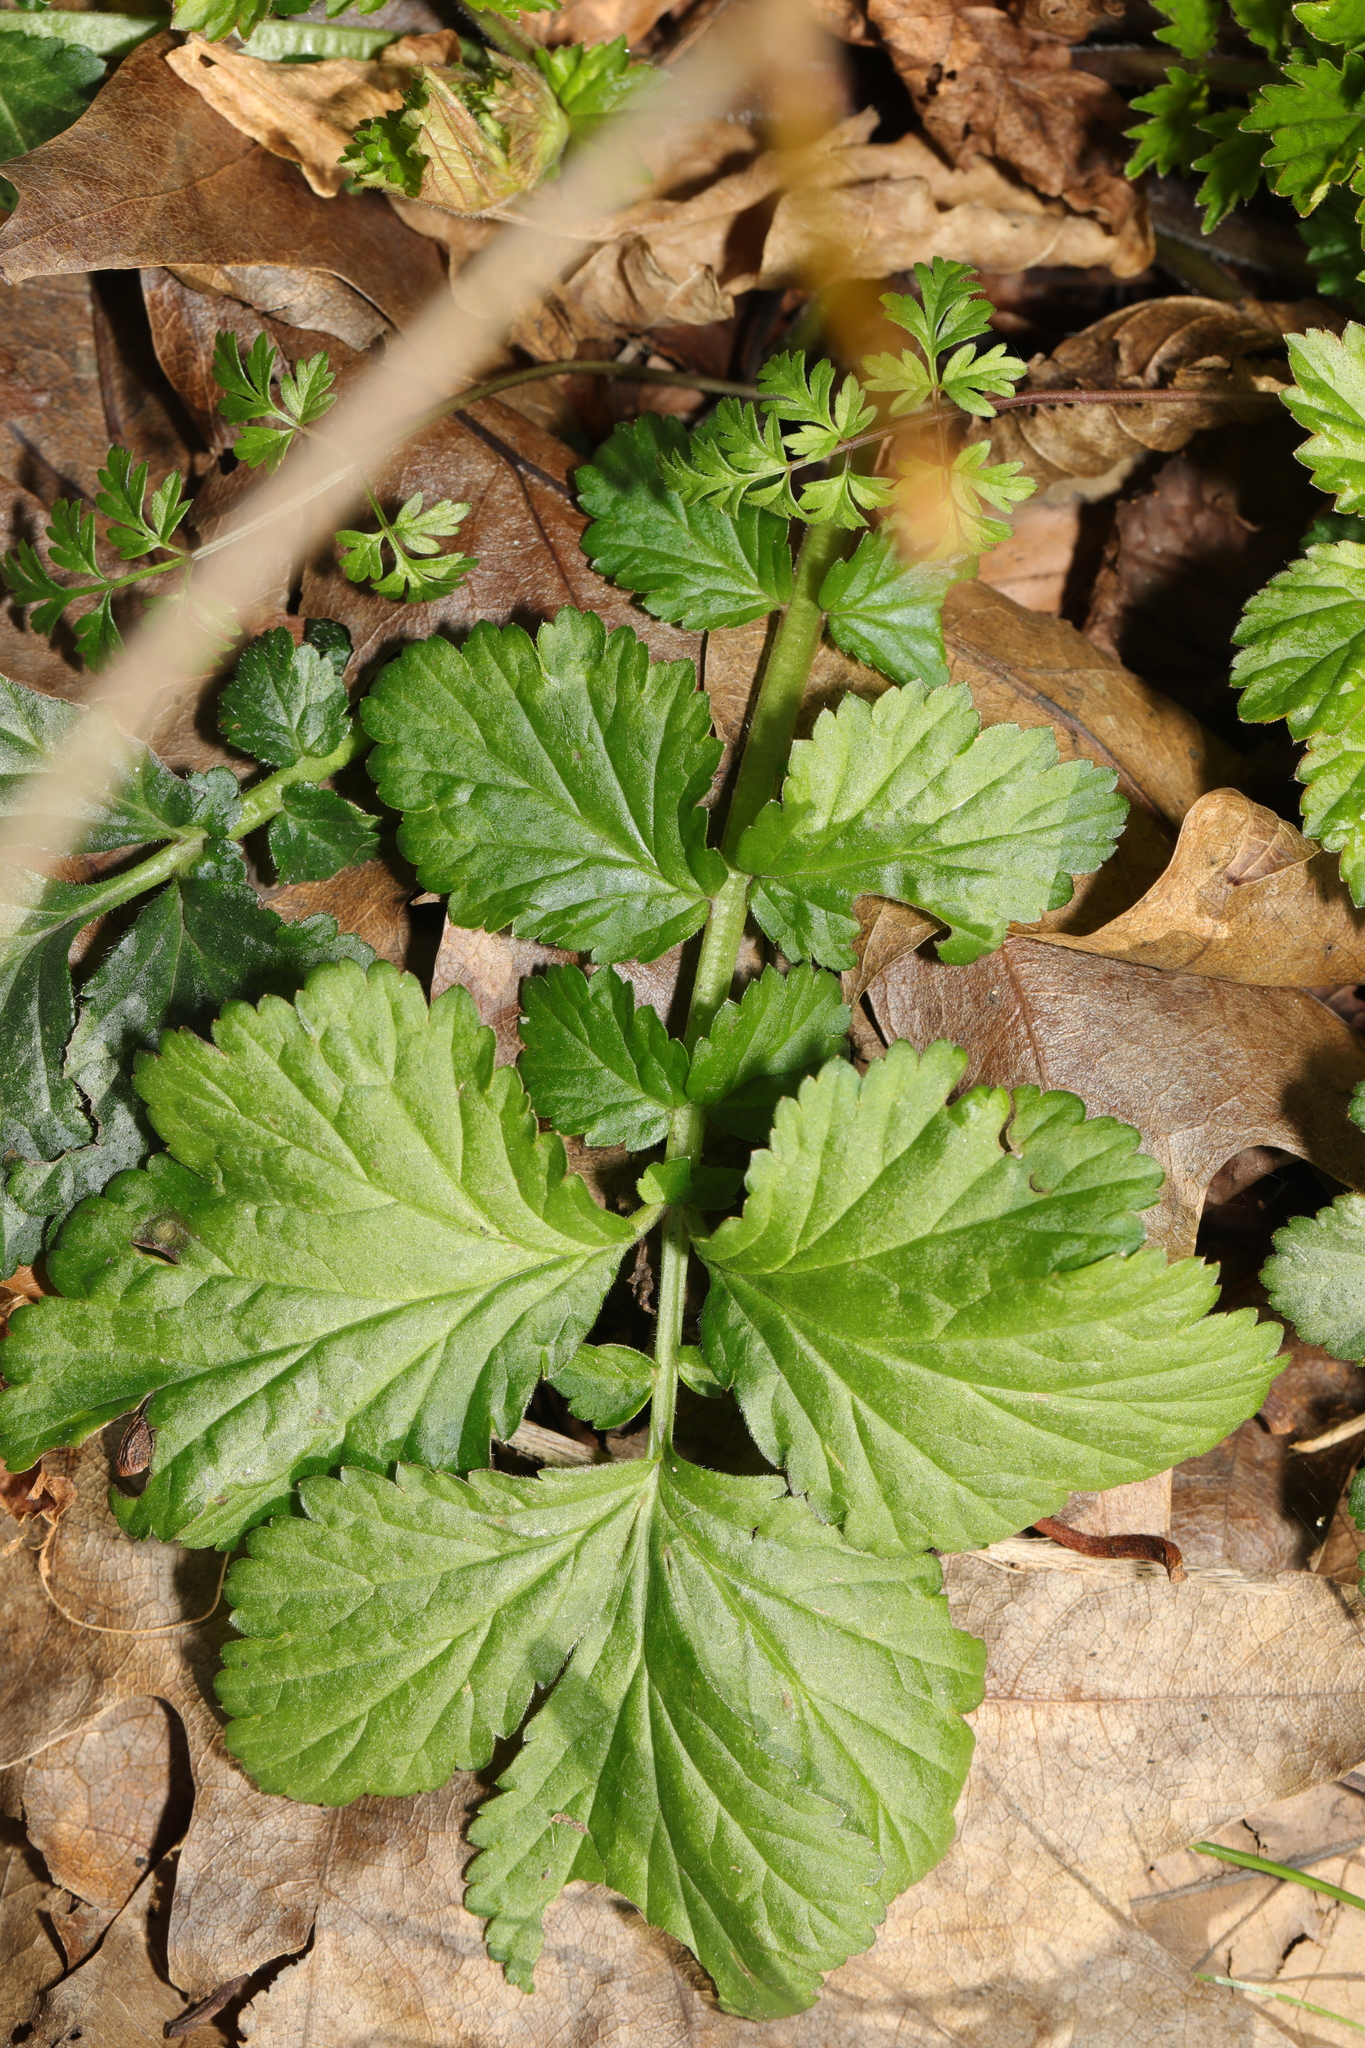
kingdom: Plantae
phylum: Tracheophyta
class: Magnoliopsida
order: Rosales
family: Rosaceae
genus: Geum
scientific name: Geum urbanum
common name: Wood avens
